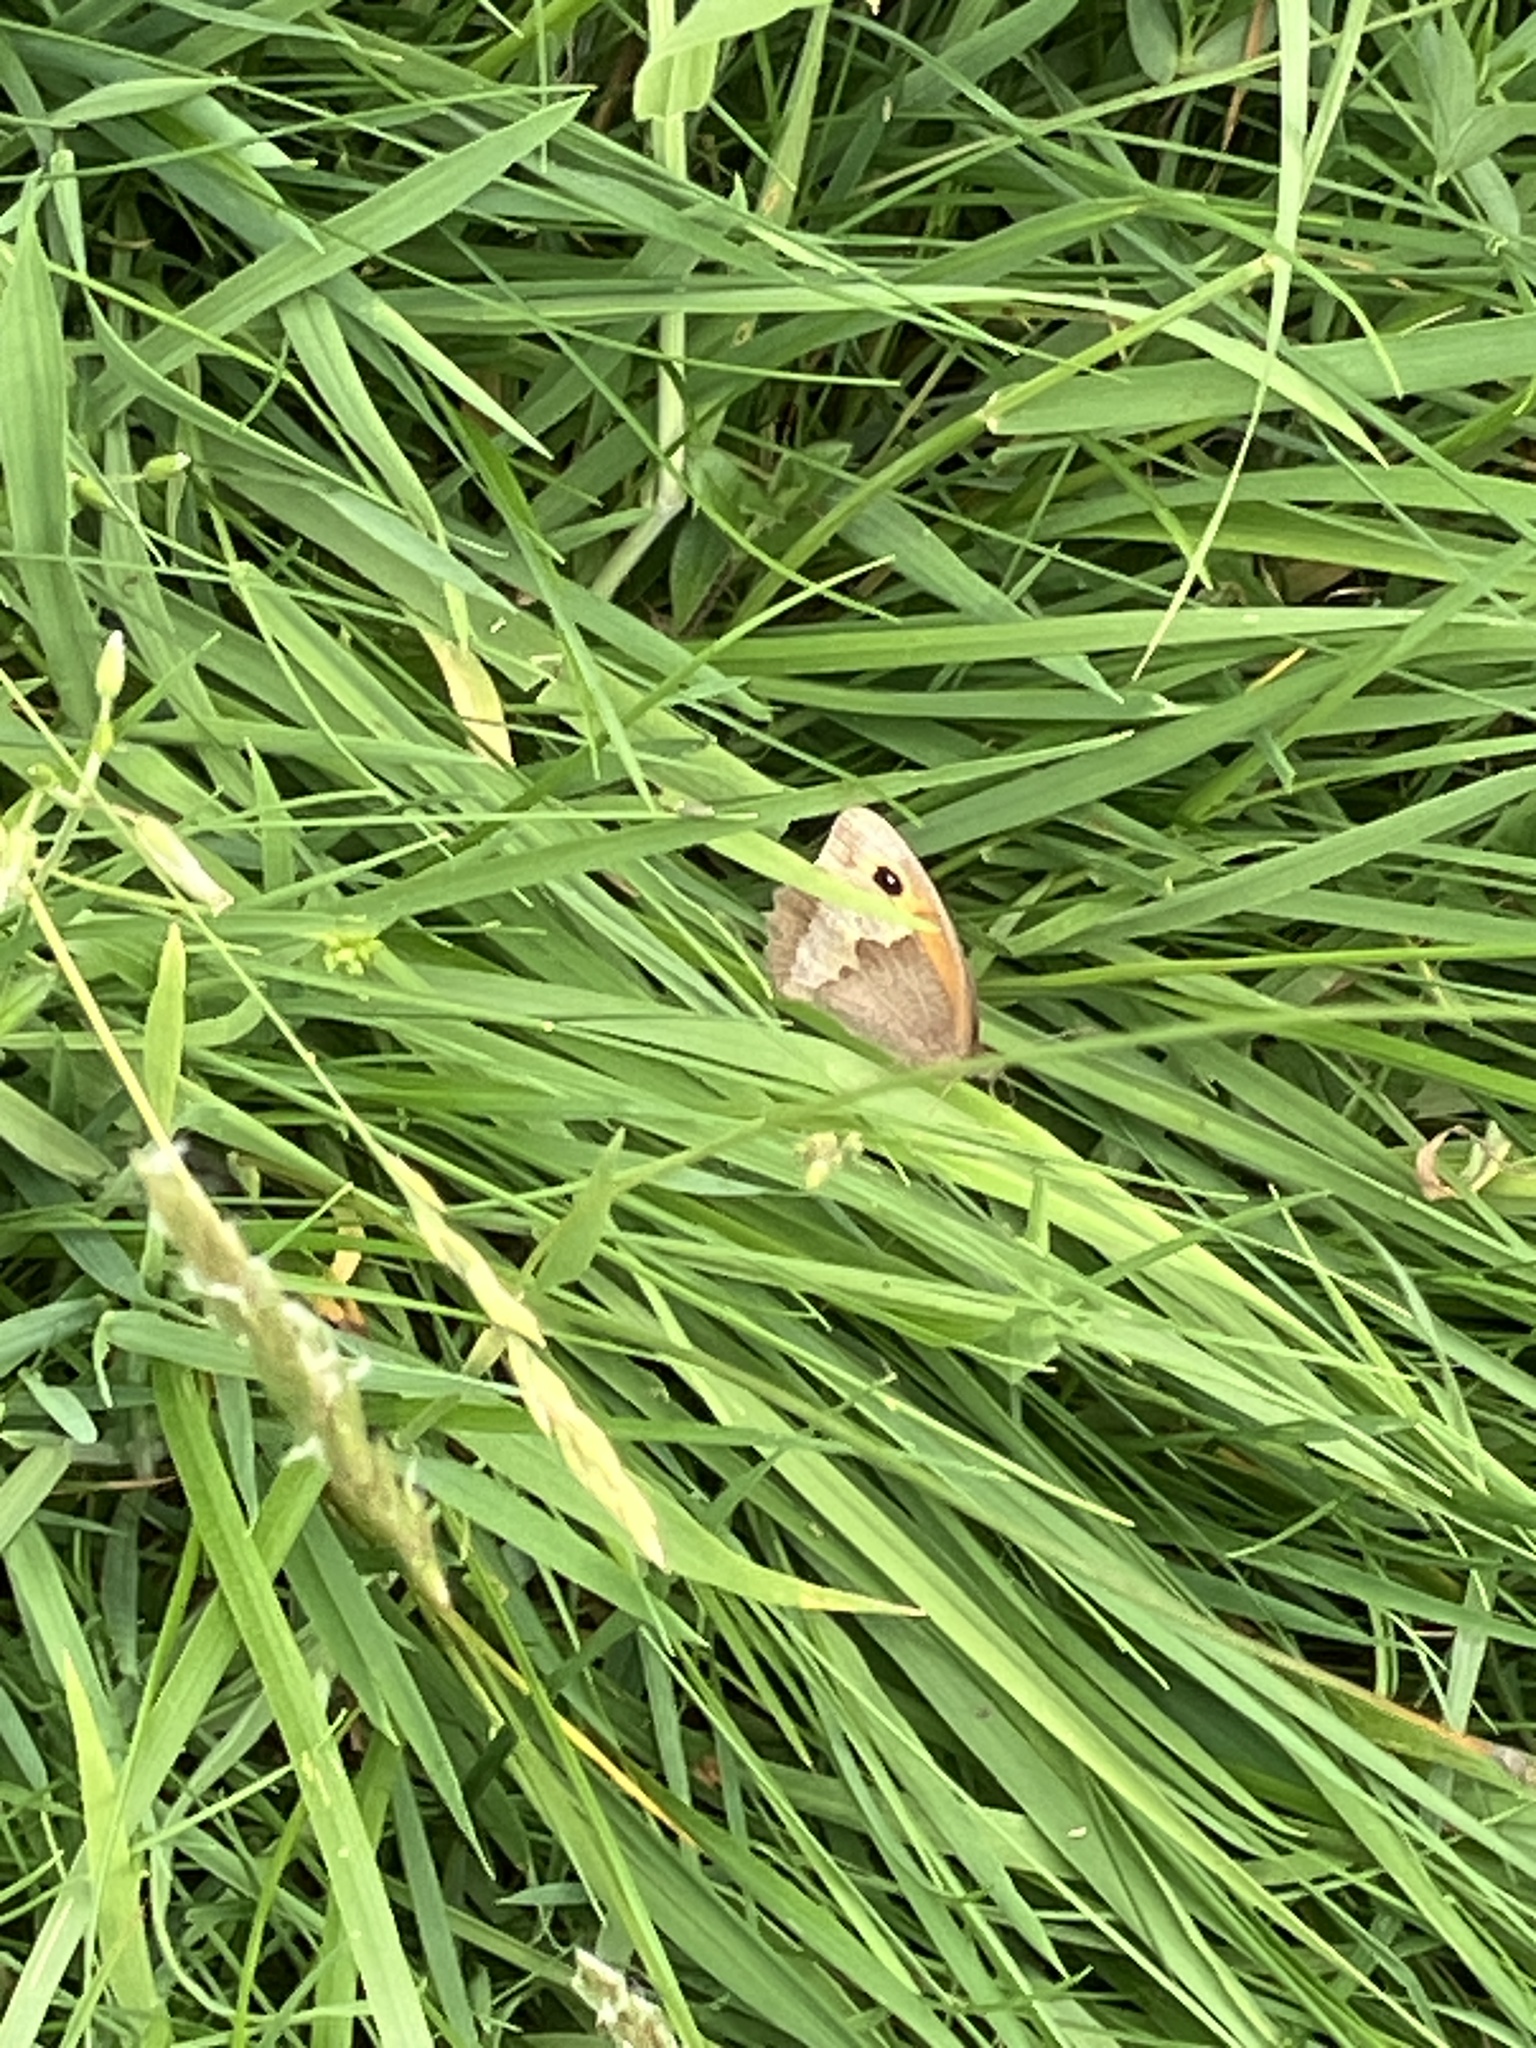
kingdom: Animalia
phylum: Arthropoda
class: Insecta
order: Lepidoptera
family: Nymphalidae
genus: Maniola
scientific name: Maniola jurtina
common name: Meadow brown
